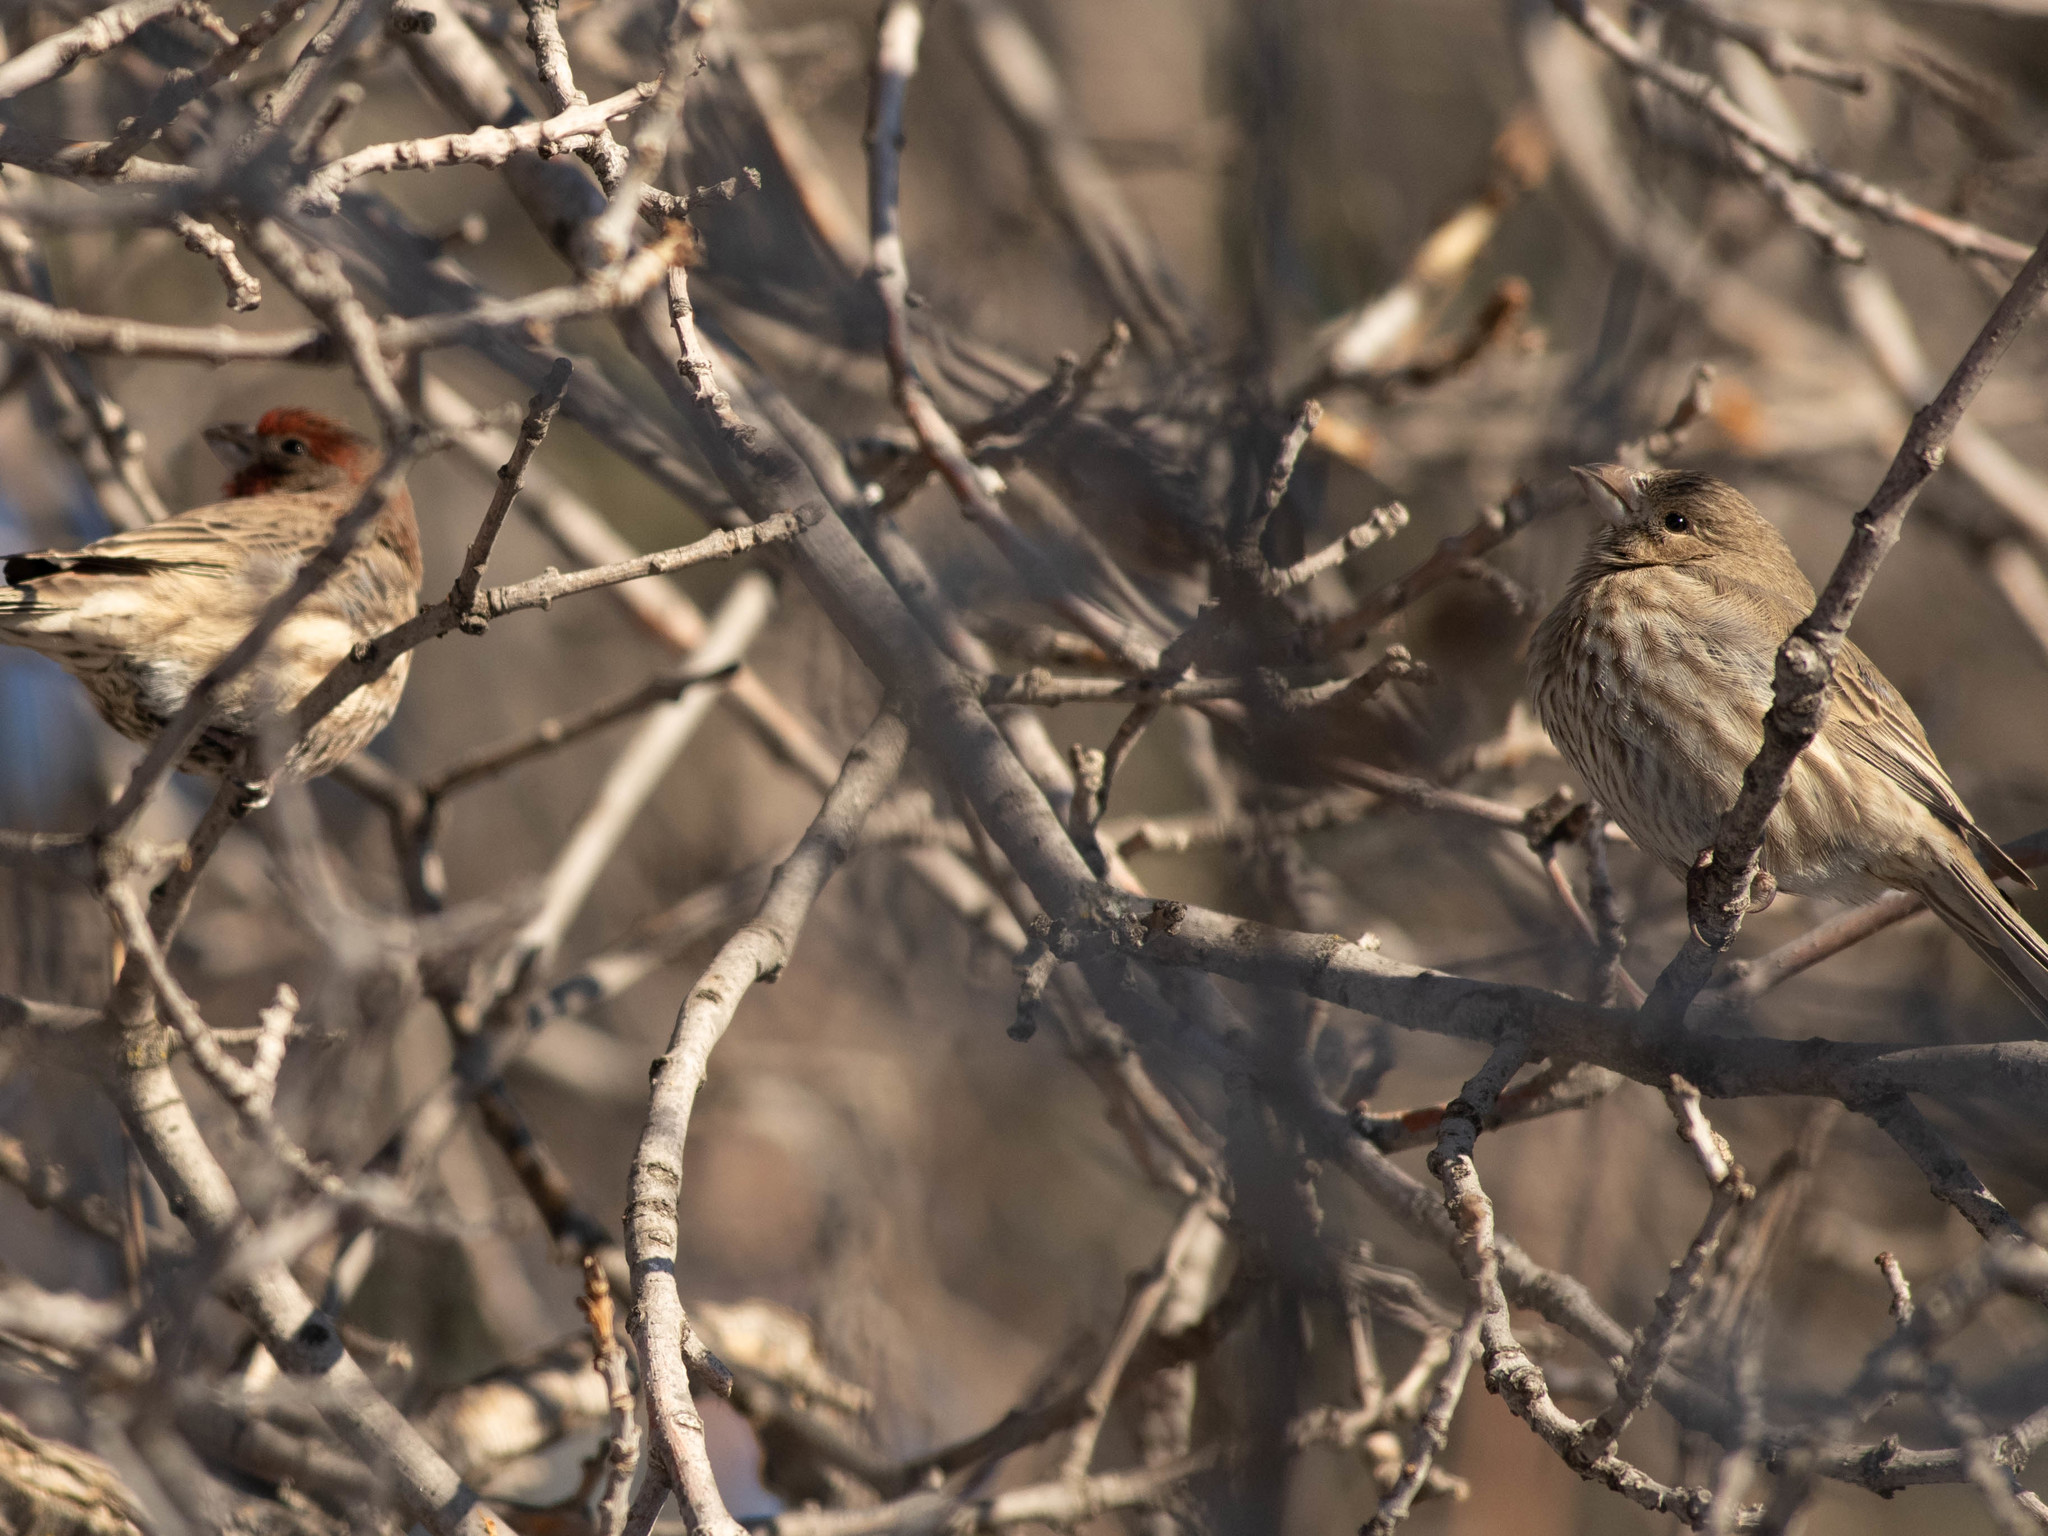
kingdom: Animalia
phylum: Chordata
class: Aves
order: Passeriformes
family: Fringillidae
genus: Haemorhous
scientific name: Haemorhous mexicanus
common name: House finch
